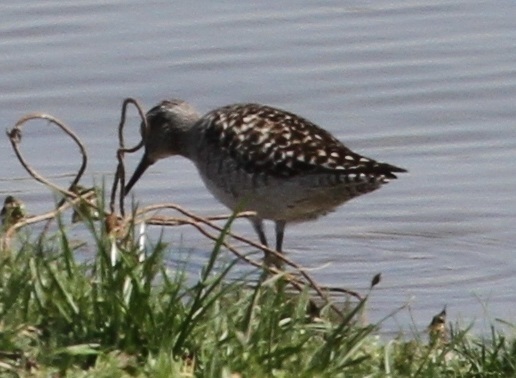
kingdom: Animalia
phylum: Chordata
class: Aves
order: Charadriiformes
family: Scolopacidae
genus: Tringa
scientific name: Tringa glareola
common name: Wood sandpiper
